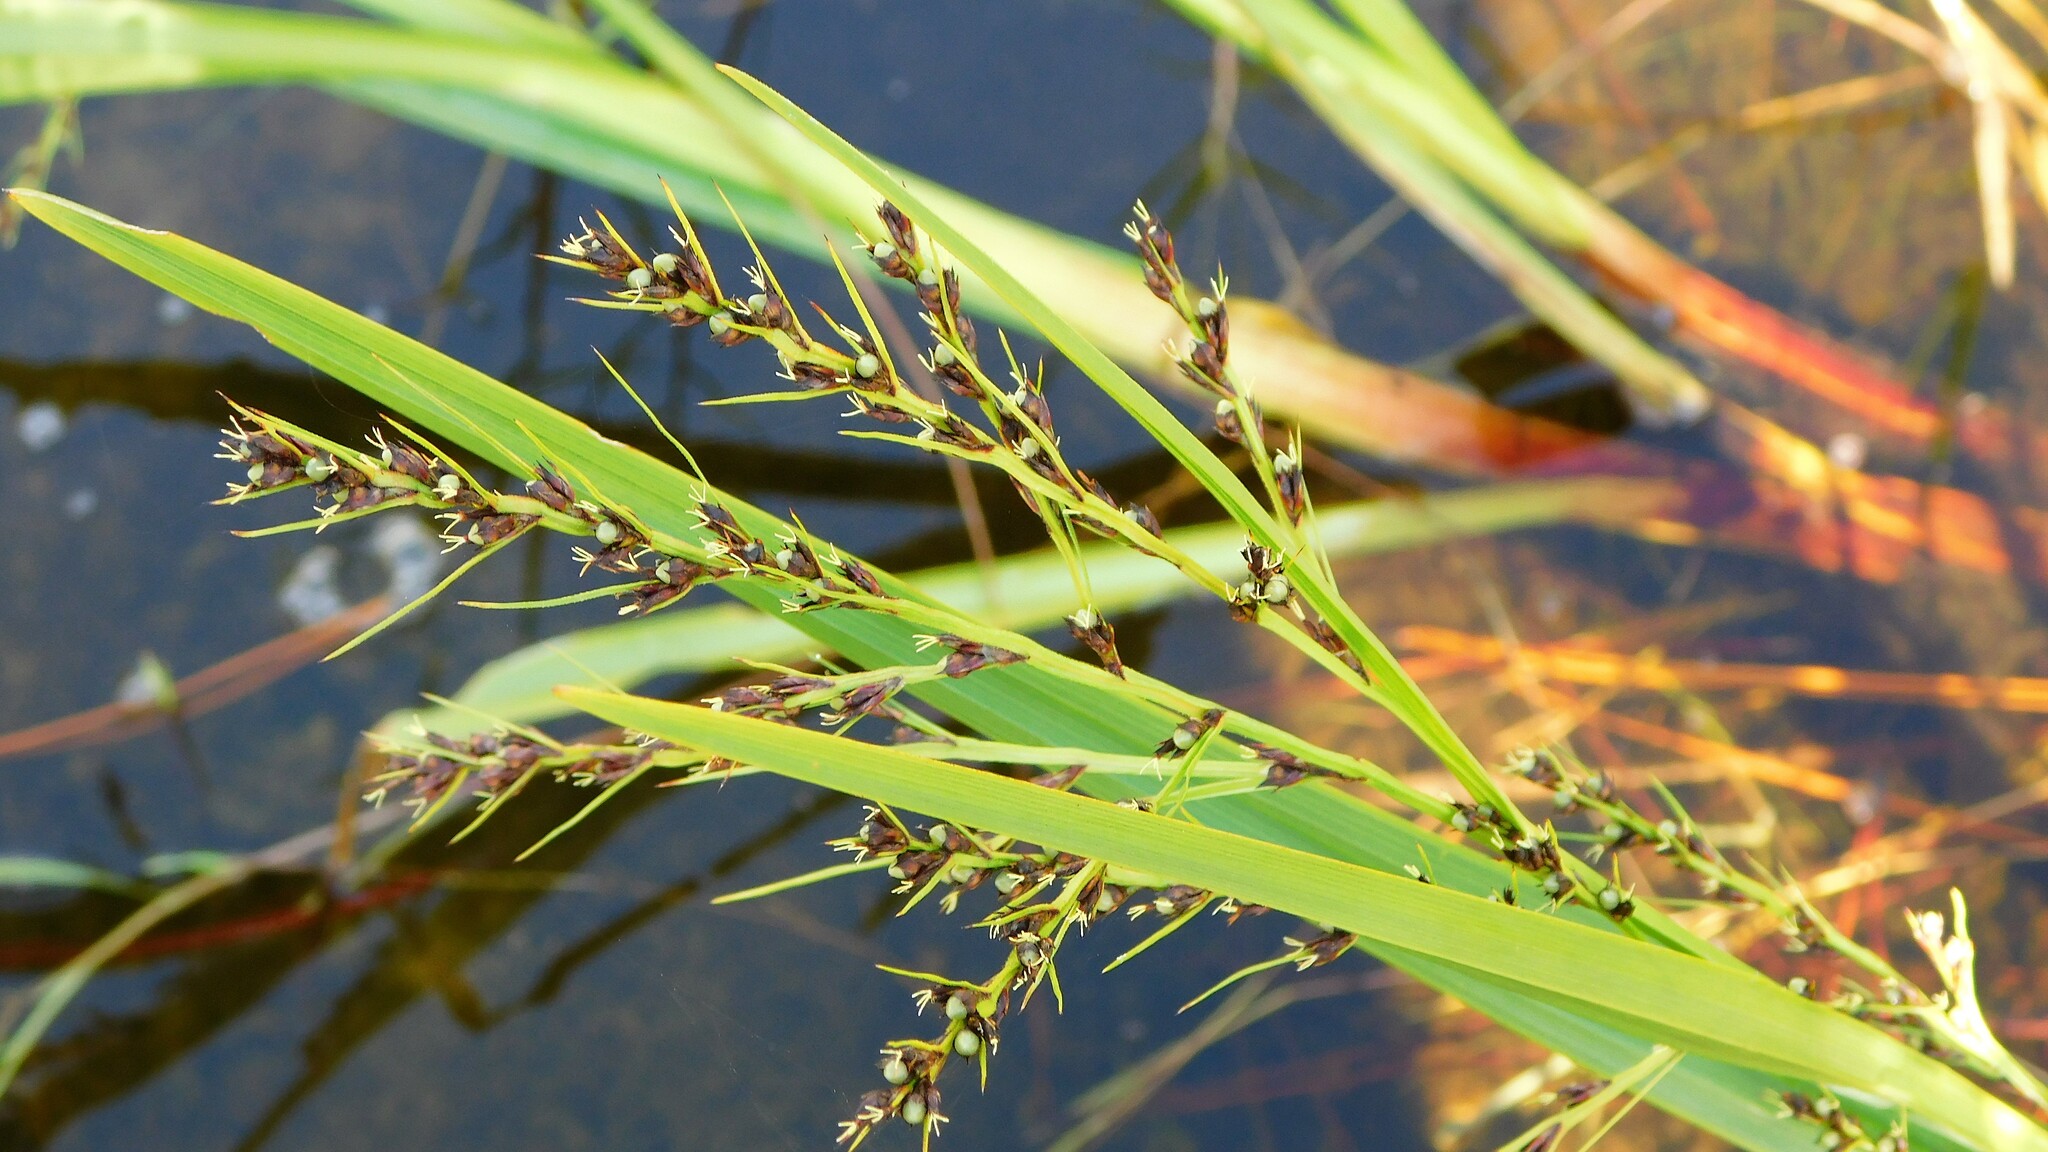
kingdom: Plantae
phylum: Tracheophyta
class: Liliopsida
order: Poales
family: Cyperaceae
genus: Scleria
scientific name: Scleria lacustris
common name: Lakeshore nutrush
